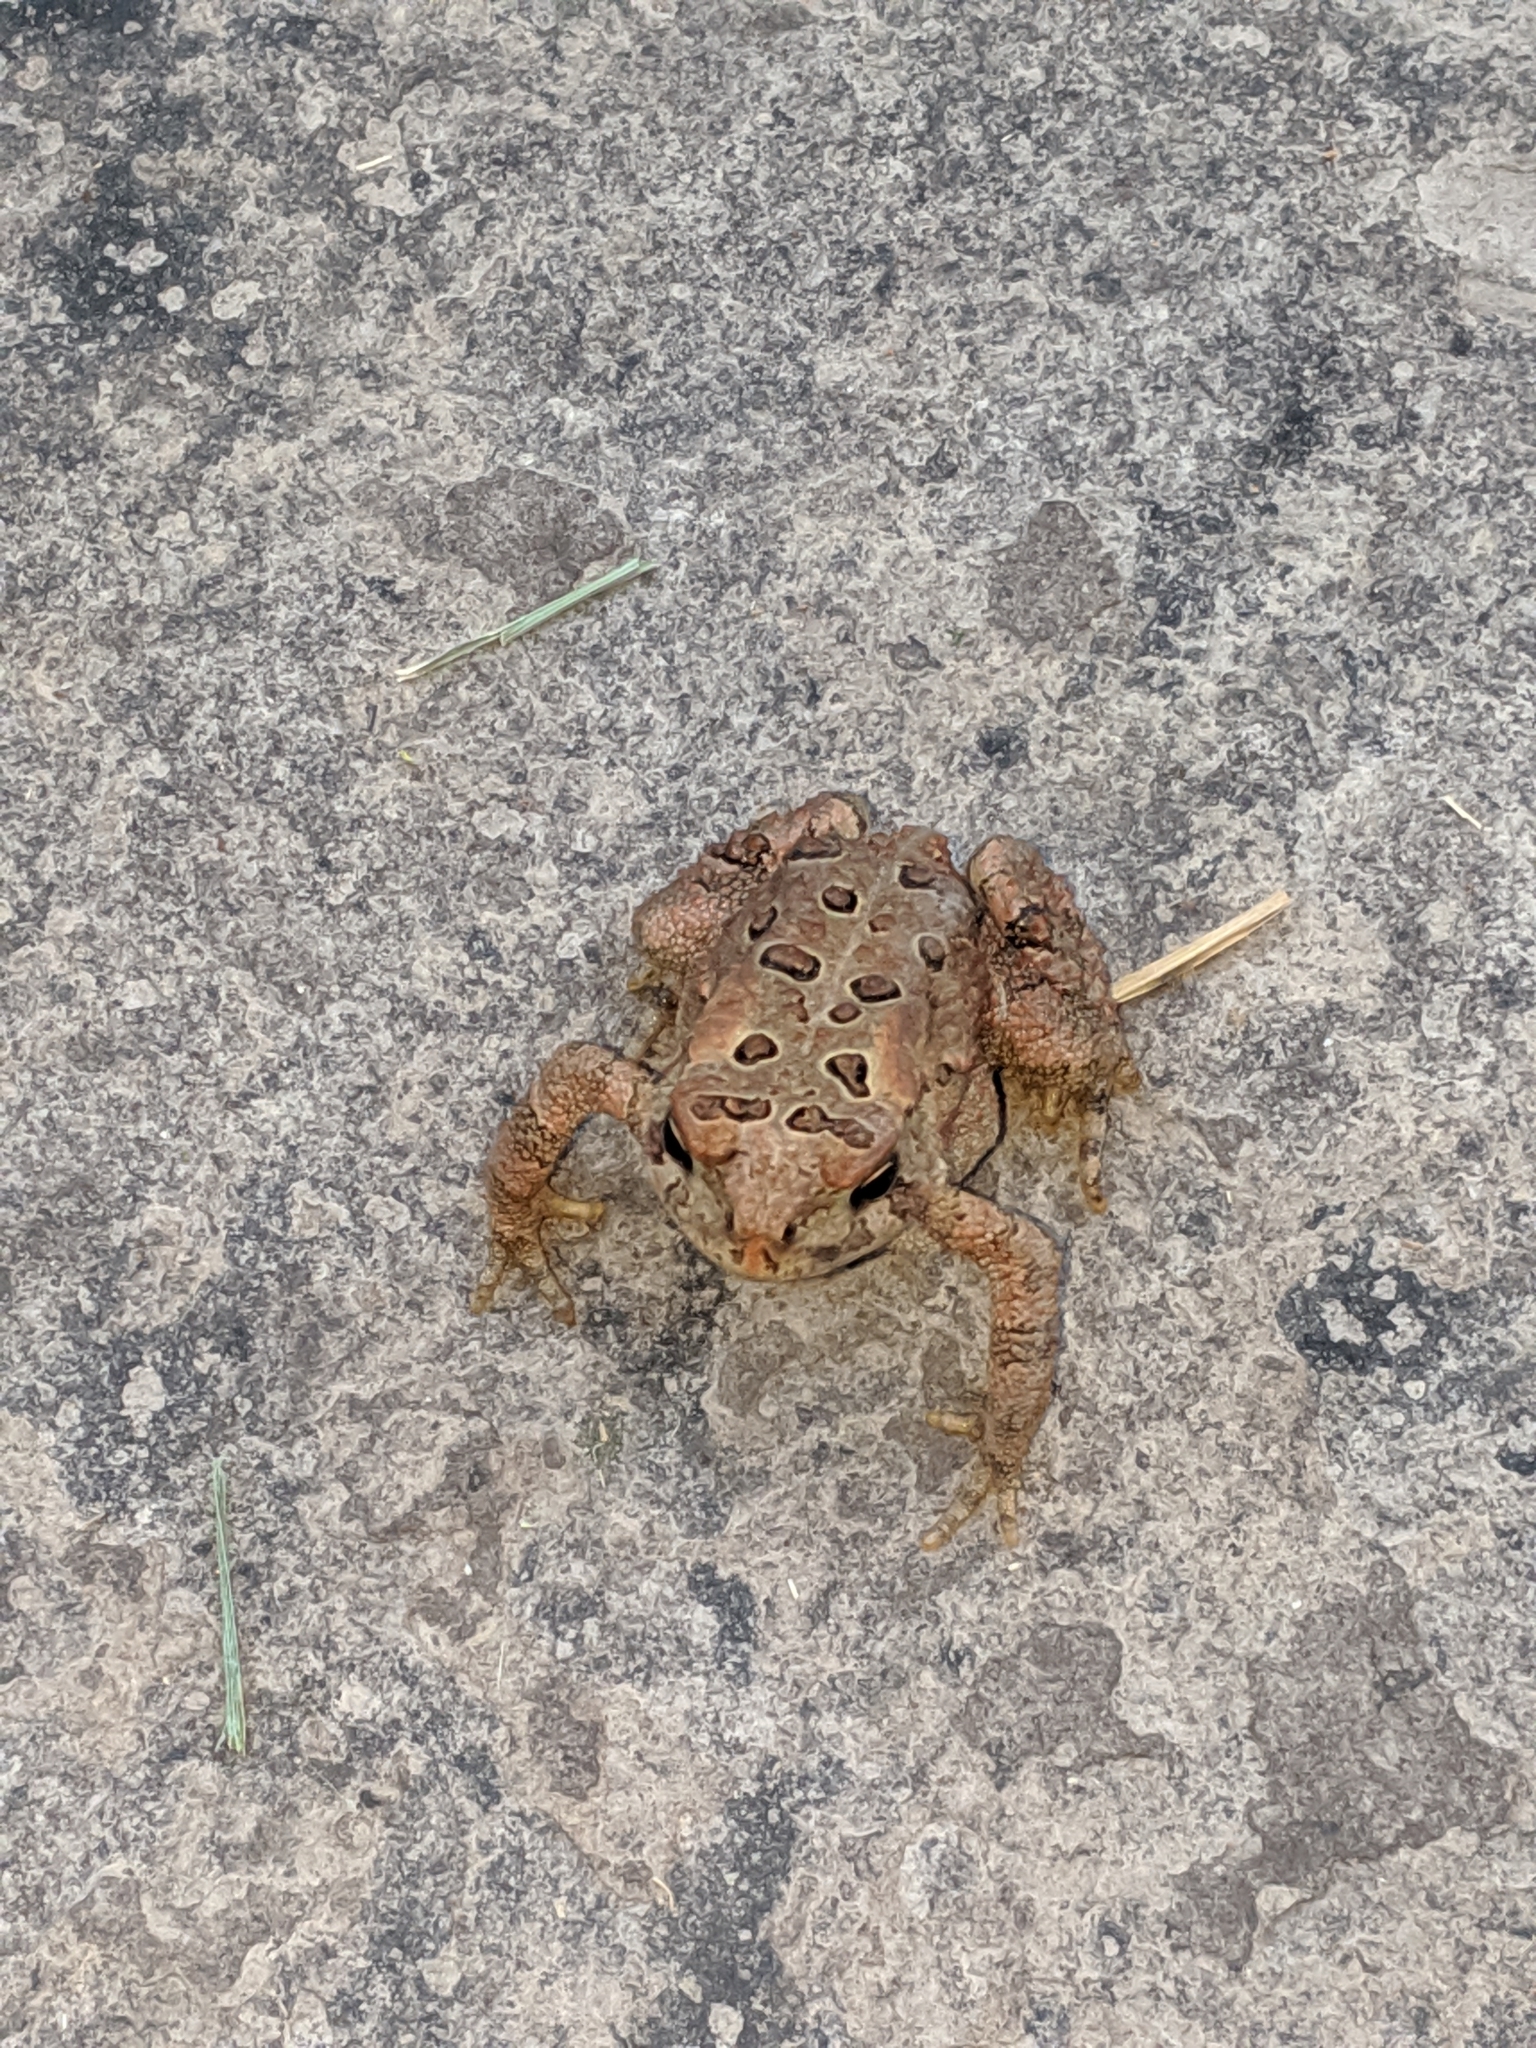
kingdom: Animalia
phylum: Chordata
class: Amphibia
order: Anura
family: Bufonidae
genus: Anaxyrus
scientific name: Anaxyrus americanus
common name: American toad
